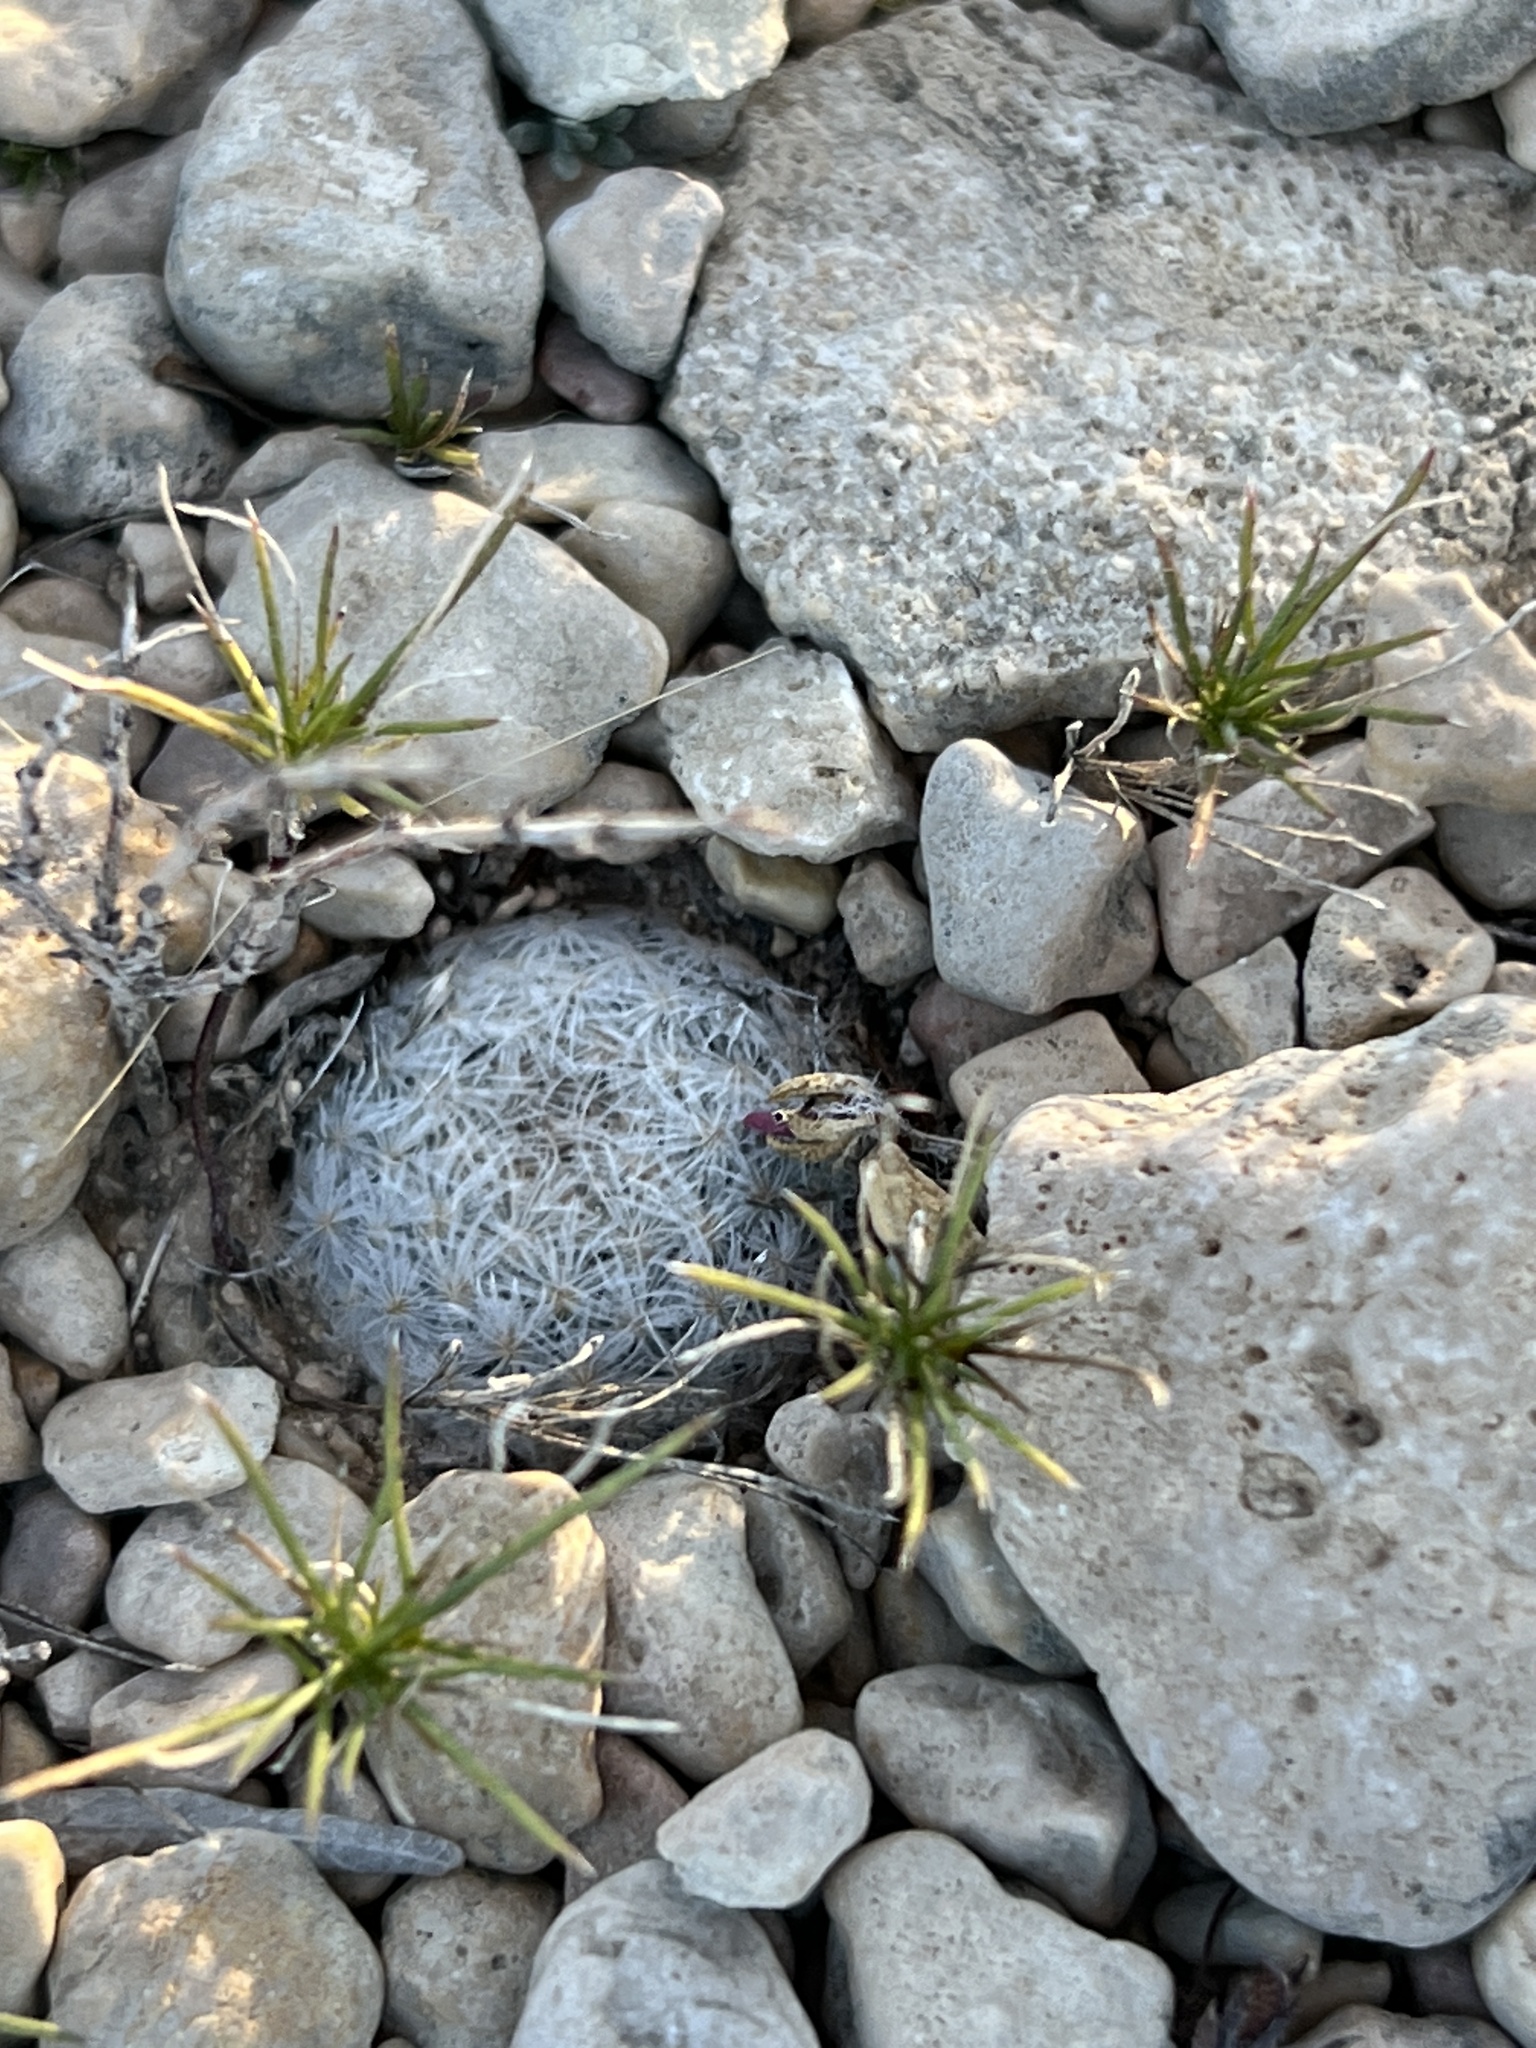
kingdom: Plantae
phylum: Tracheophyta
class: Magnoliopsida
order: Caryophyllales
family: Cactaceae
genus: Mammillaria
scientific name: Mammillaria lasiacantha
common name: Lace-spine nipple cactus
